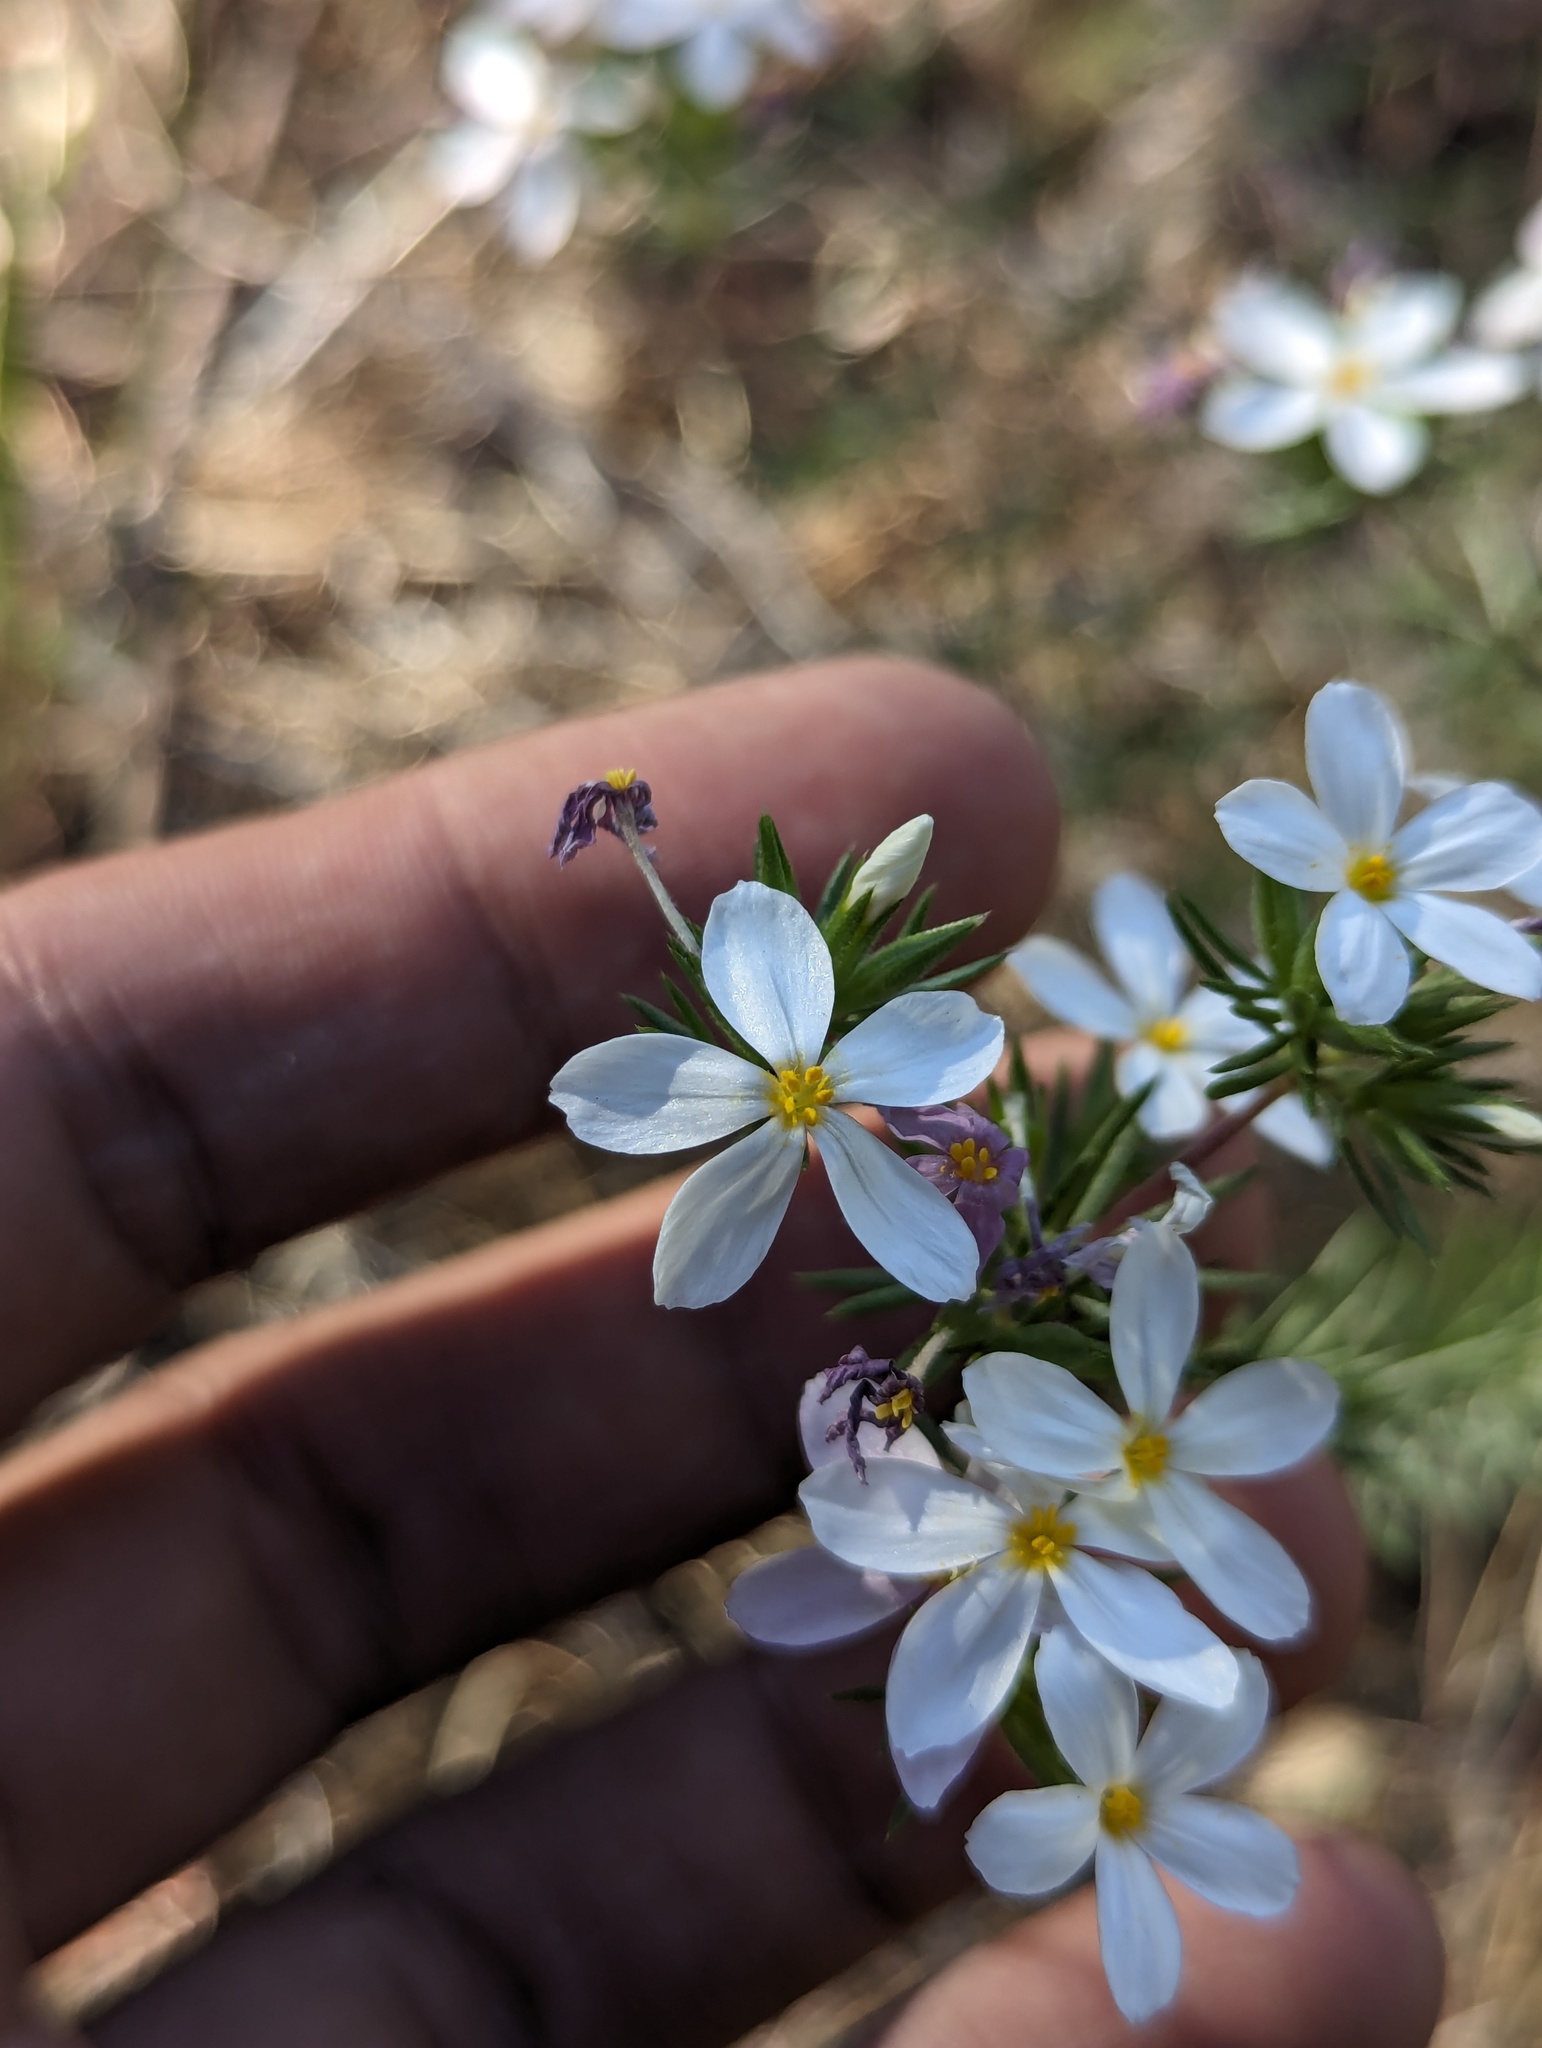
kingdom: Plantae
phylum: Tracheophyta
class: Magnoliopsida
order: Ericales
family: Polemoniaceae
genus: Leptosiphon
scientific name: Leptosiphon nuttallii
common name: Nuttall's linanthus
